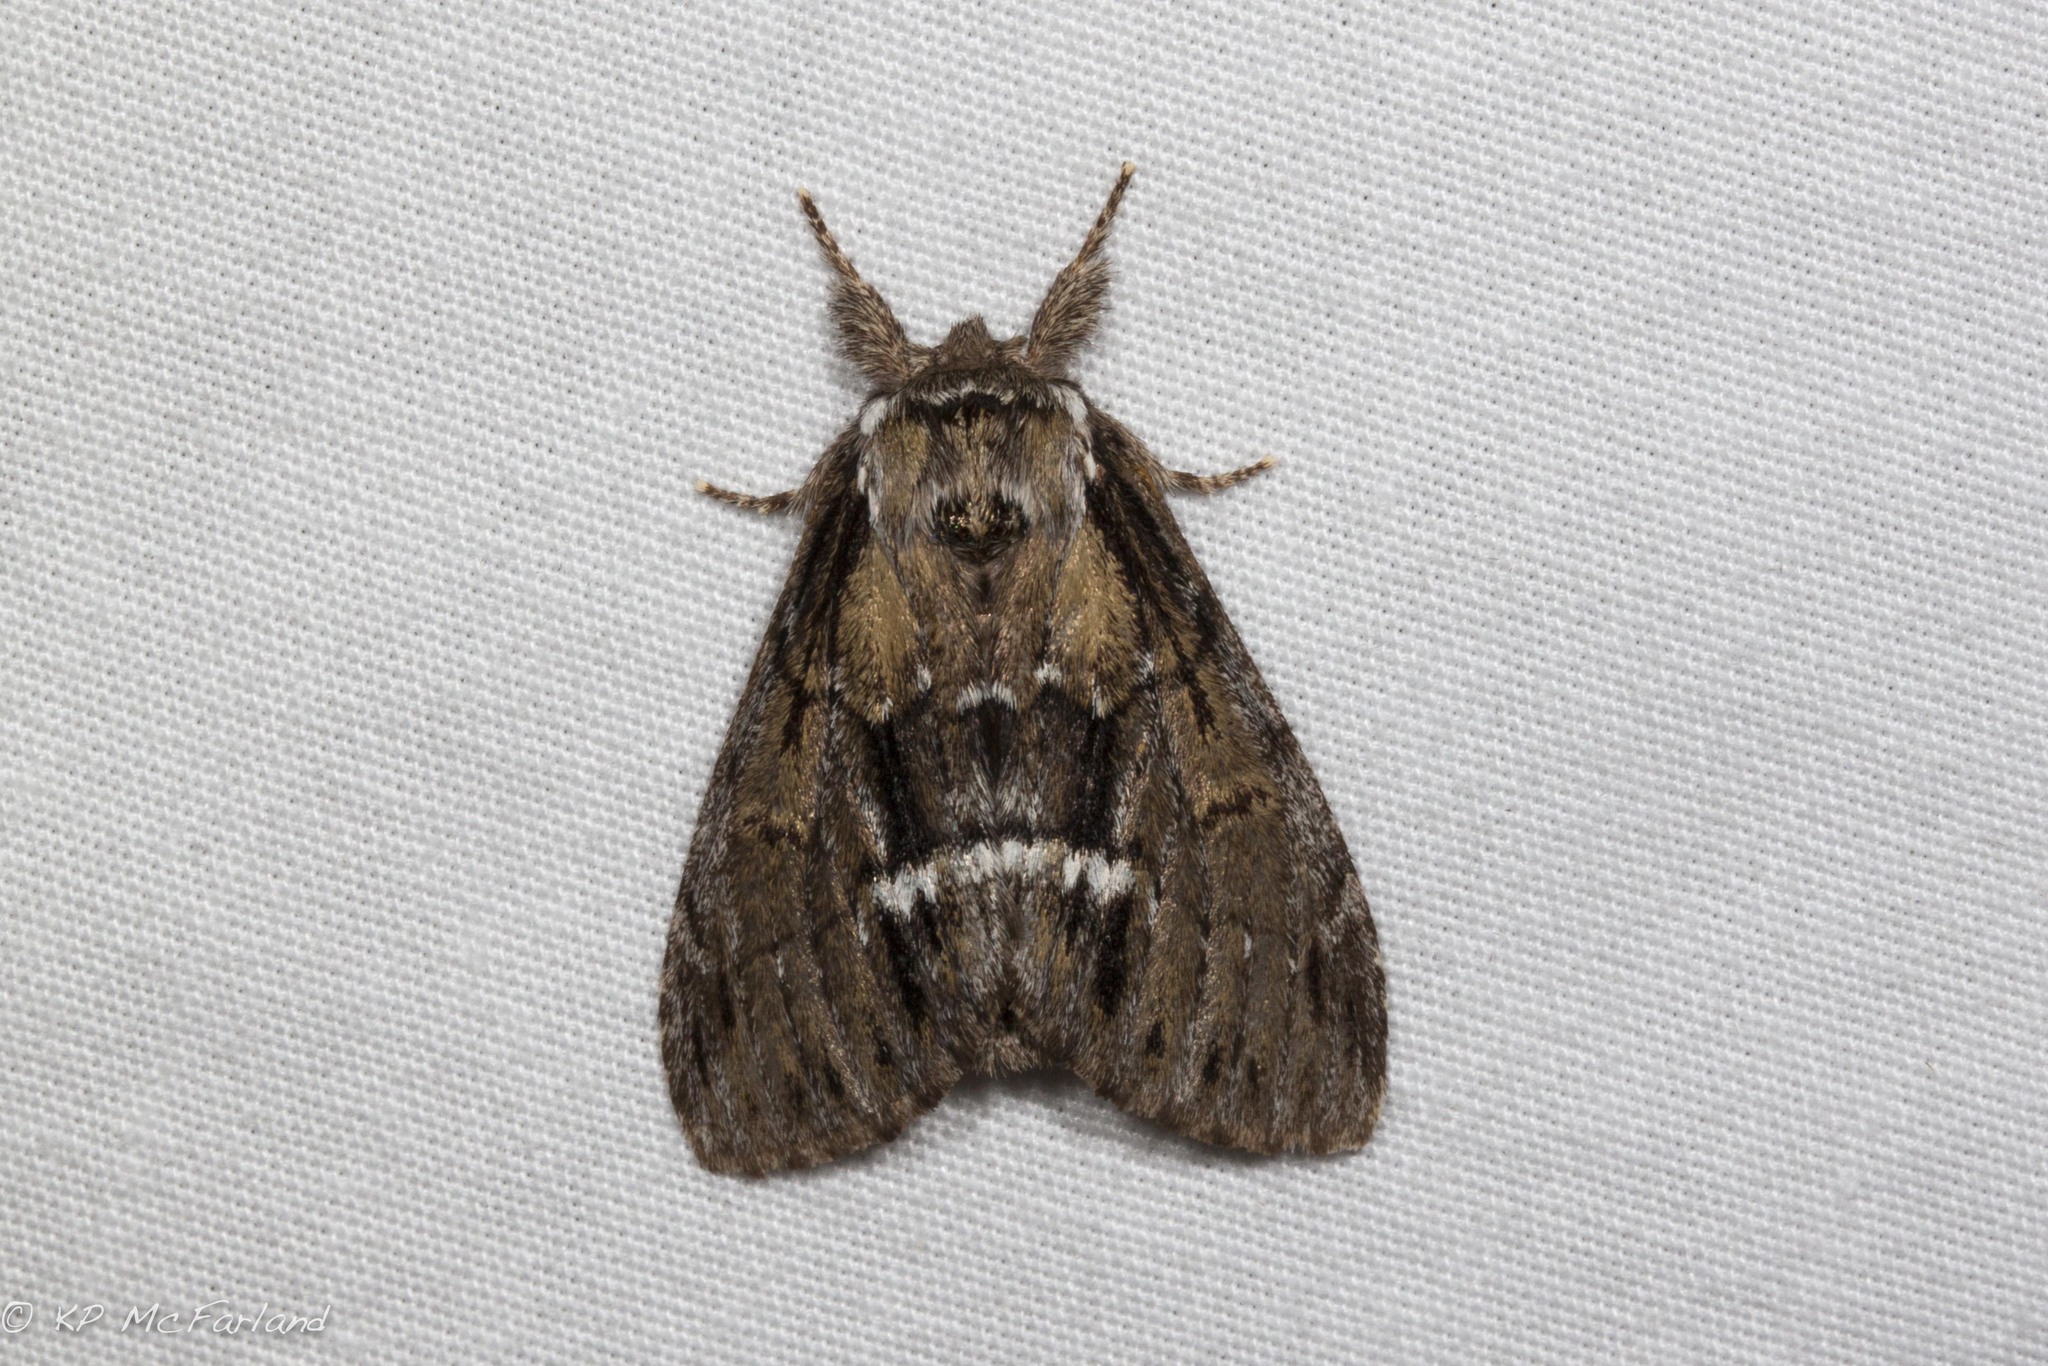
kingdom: Animalia
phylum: Arthropoda
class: Insecta
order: Lepidoptera
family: Notodontidae
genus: Paraeschra
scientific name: Paraeschra georgica
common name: Georgian prominent
